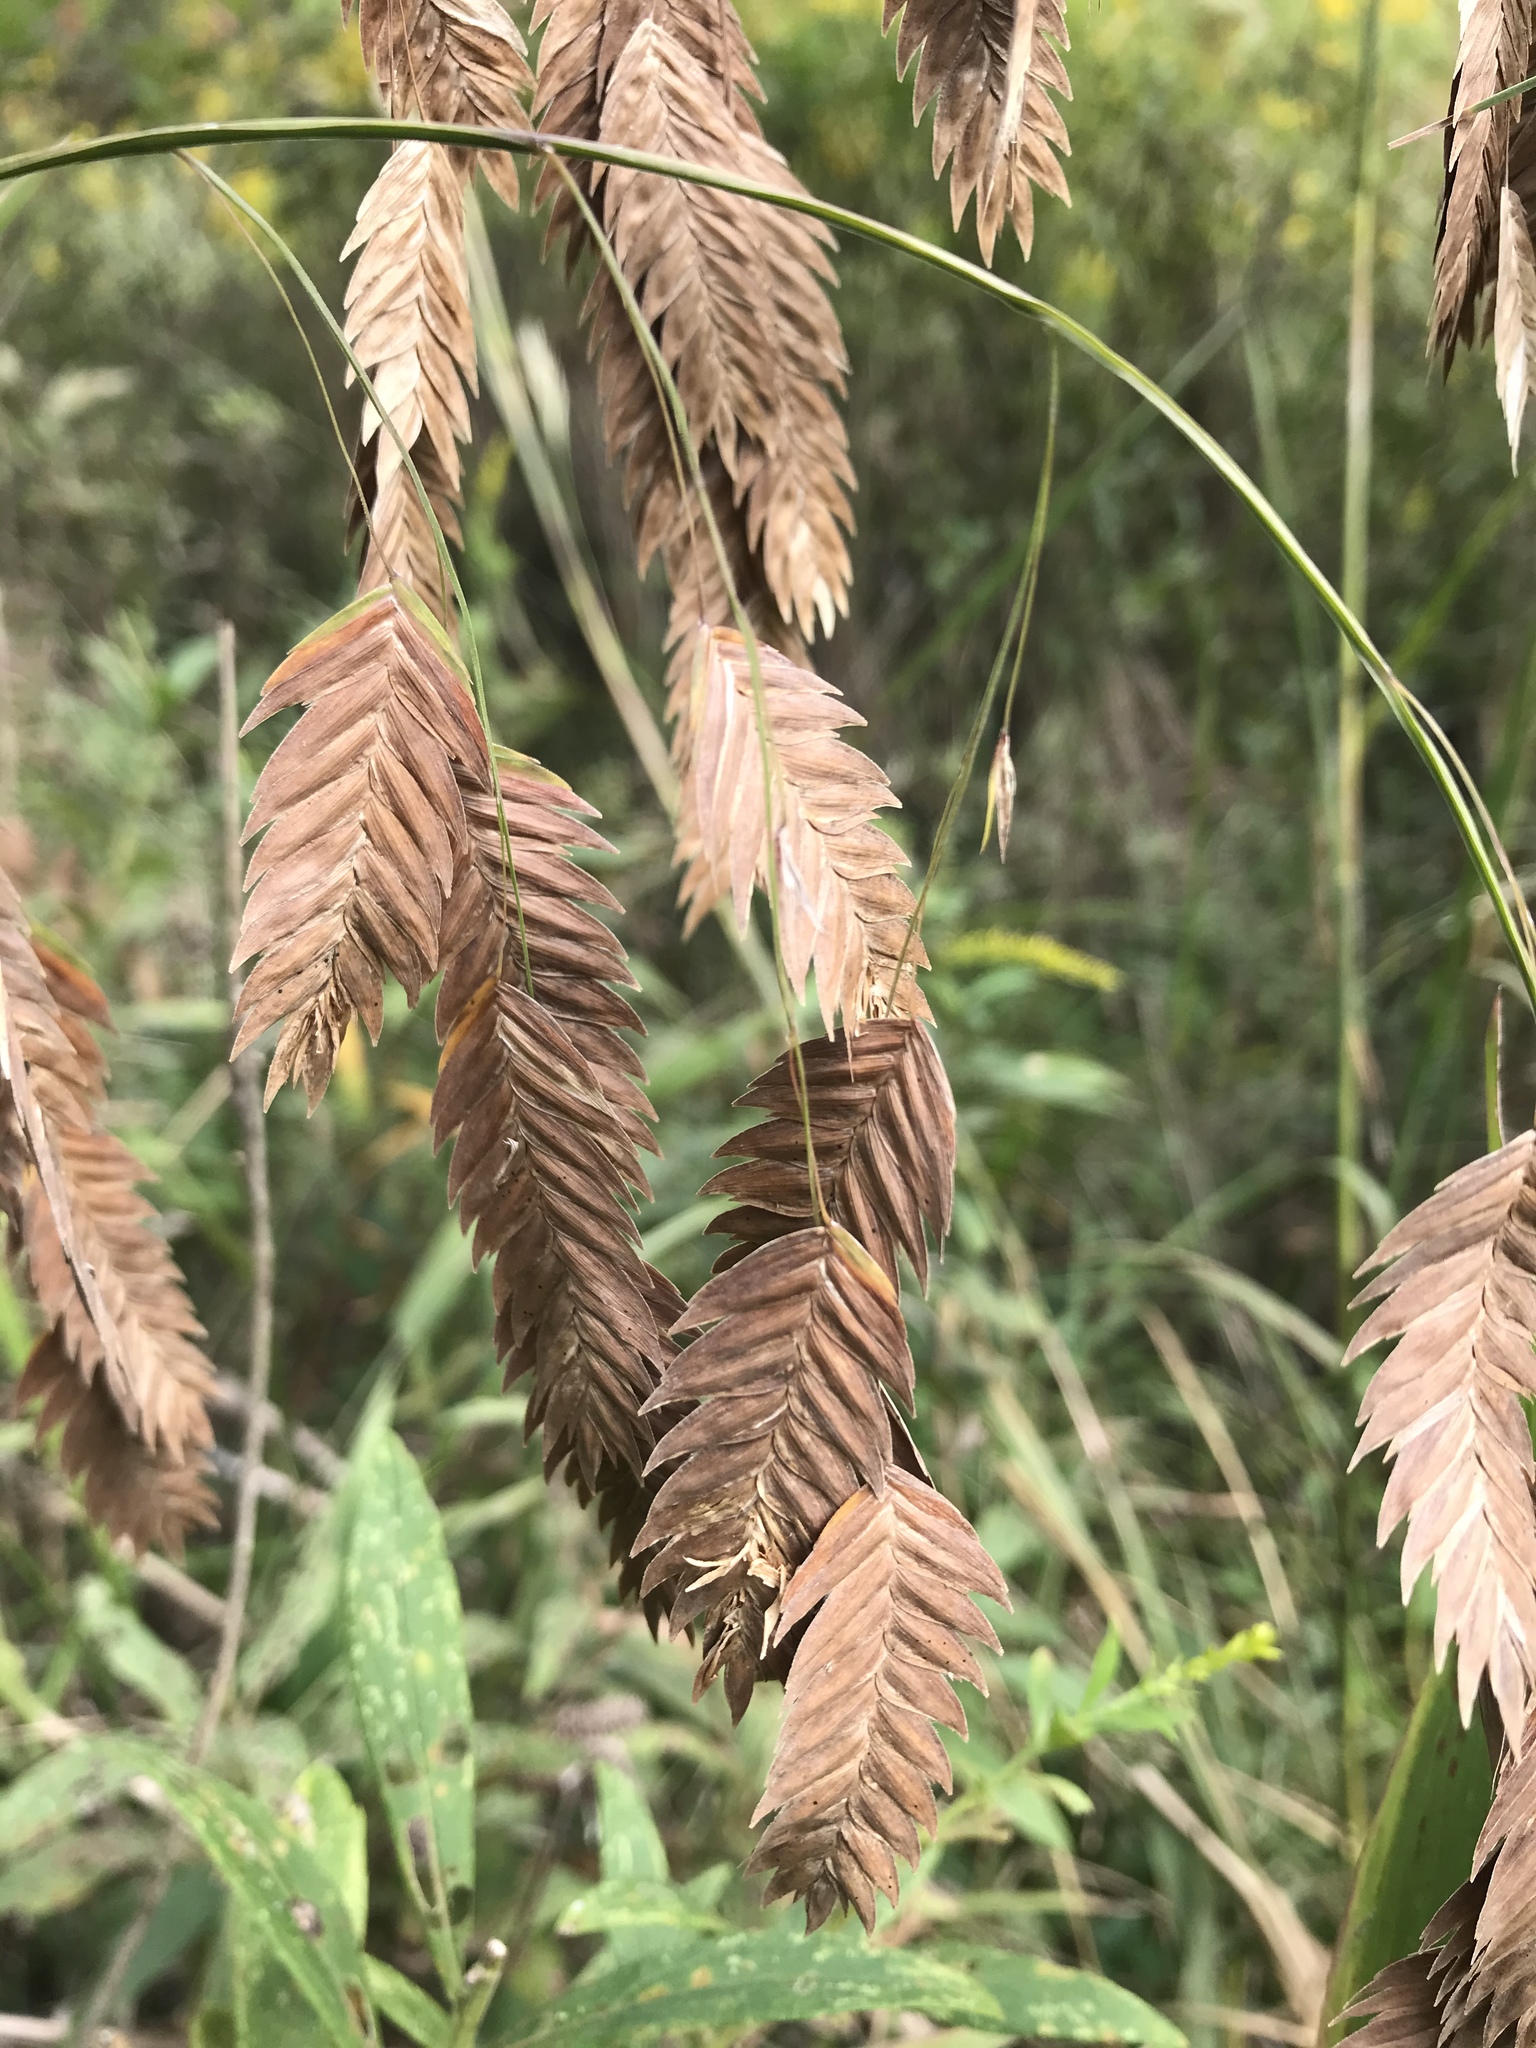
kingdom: Plantae
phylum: Tracheophyta
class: Liliopsida
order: Poales
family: Poaceae
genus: Chasmanthium
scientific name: Chasmanthium latifolium
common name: Broad-leaved chasmanthium
